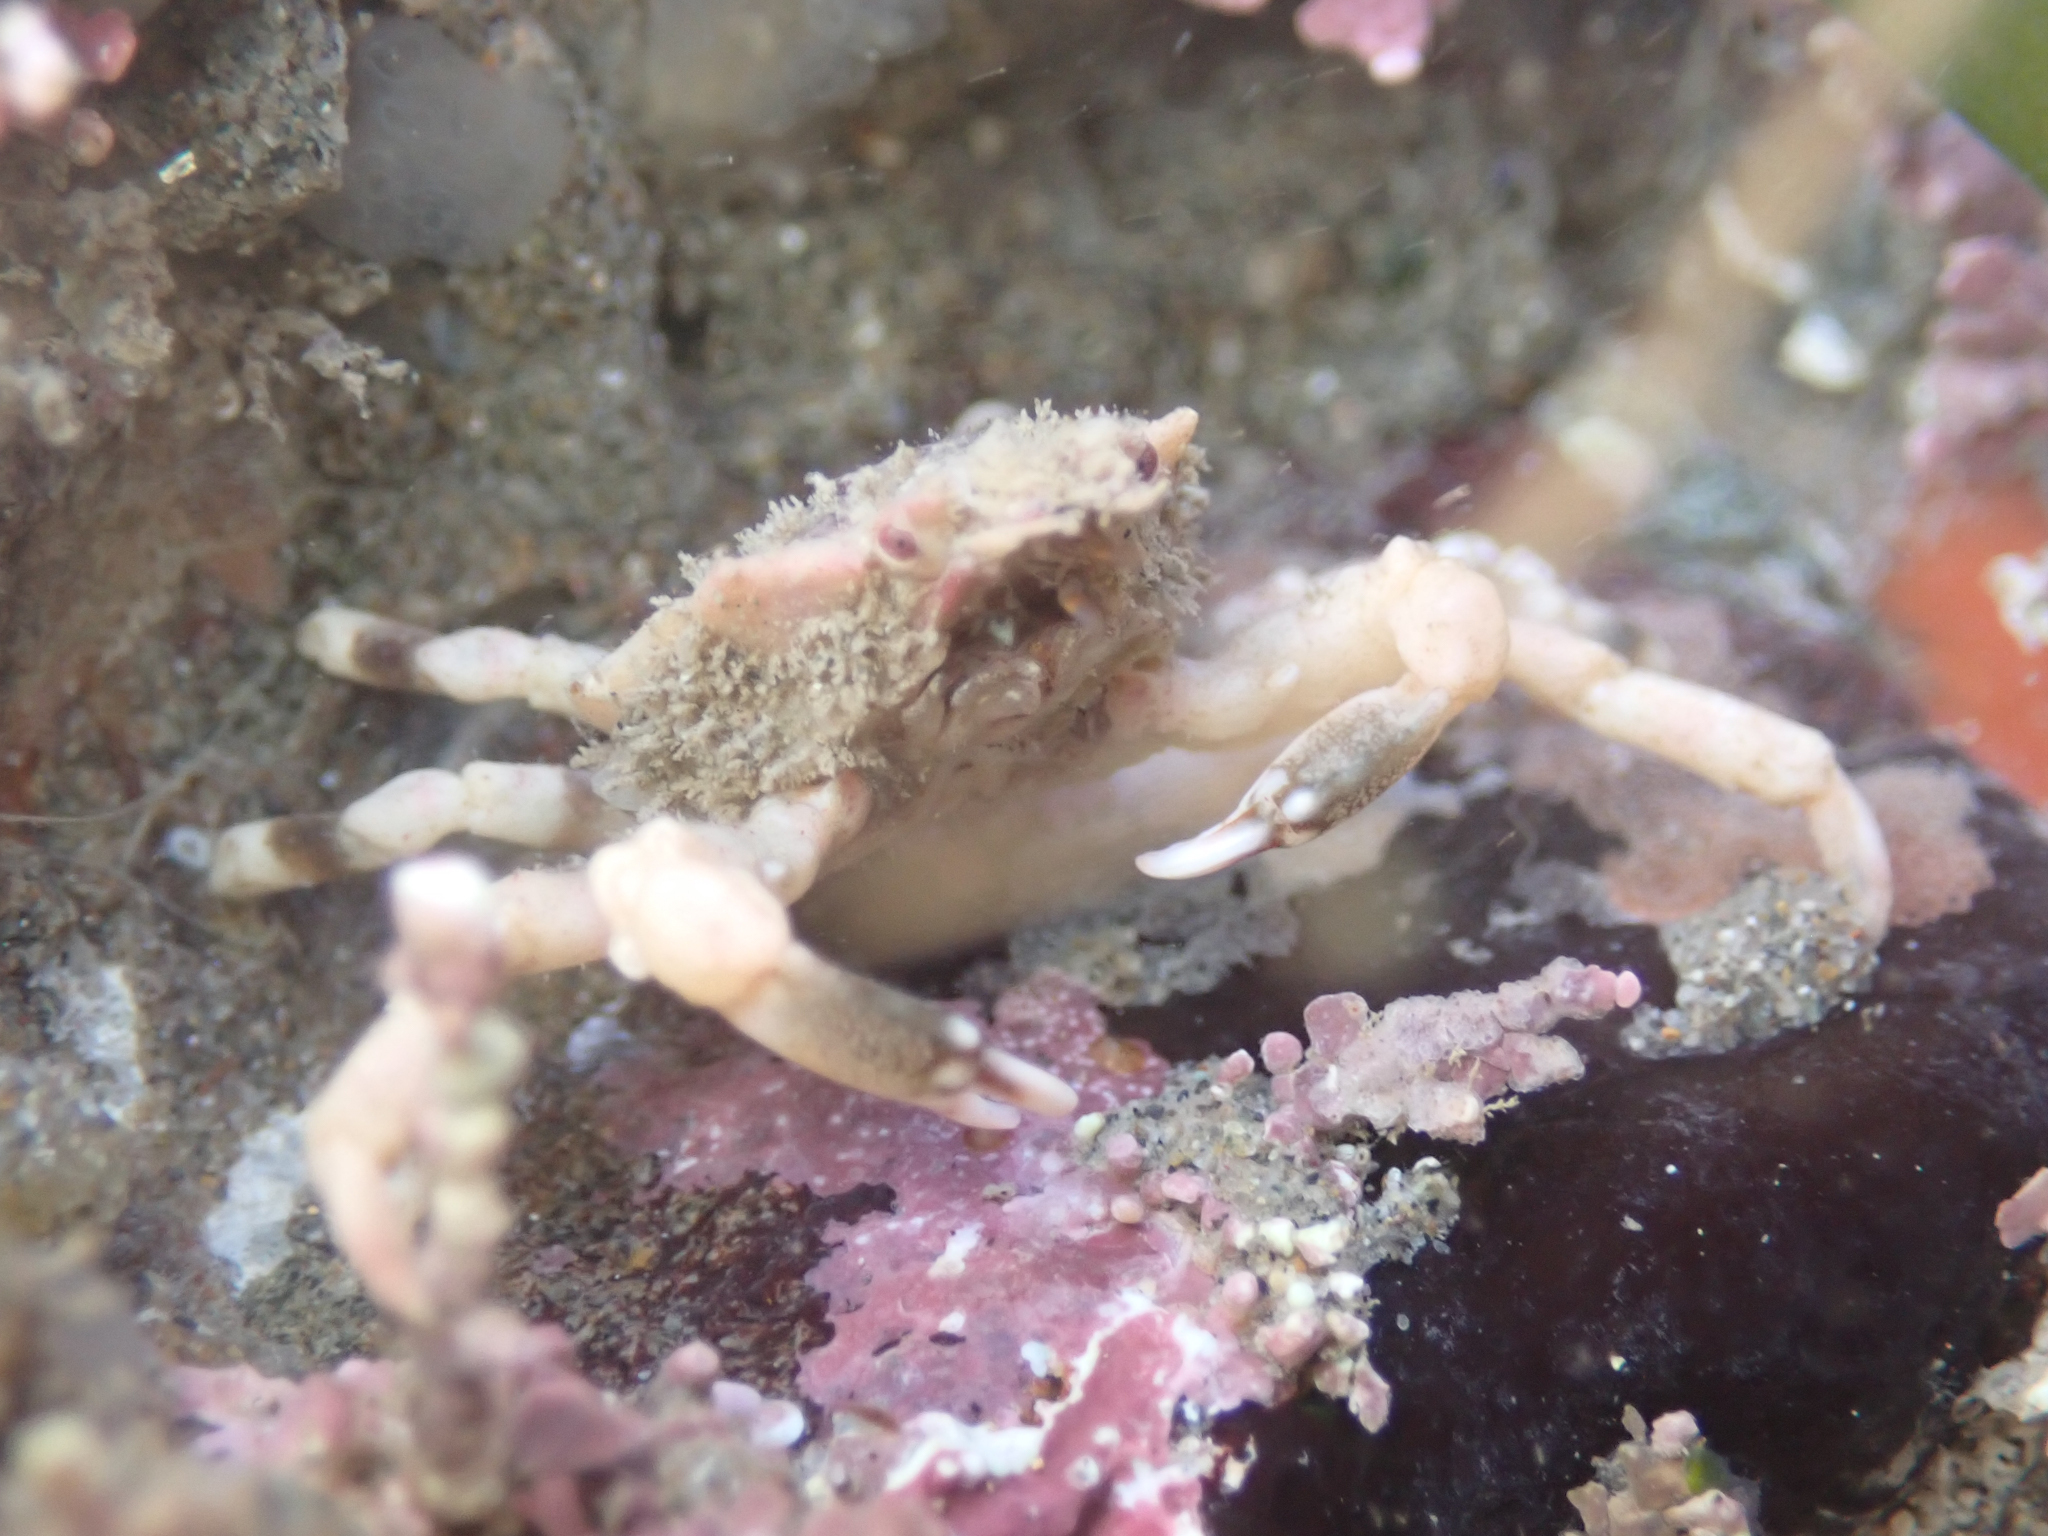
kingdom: Animalia
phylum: Arthropoda
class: Malacostraca
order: Decapoda
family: Epialtidae
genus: Pugettia
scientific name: Pugettia foliata
